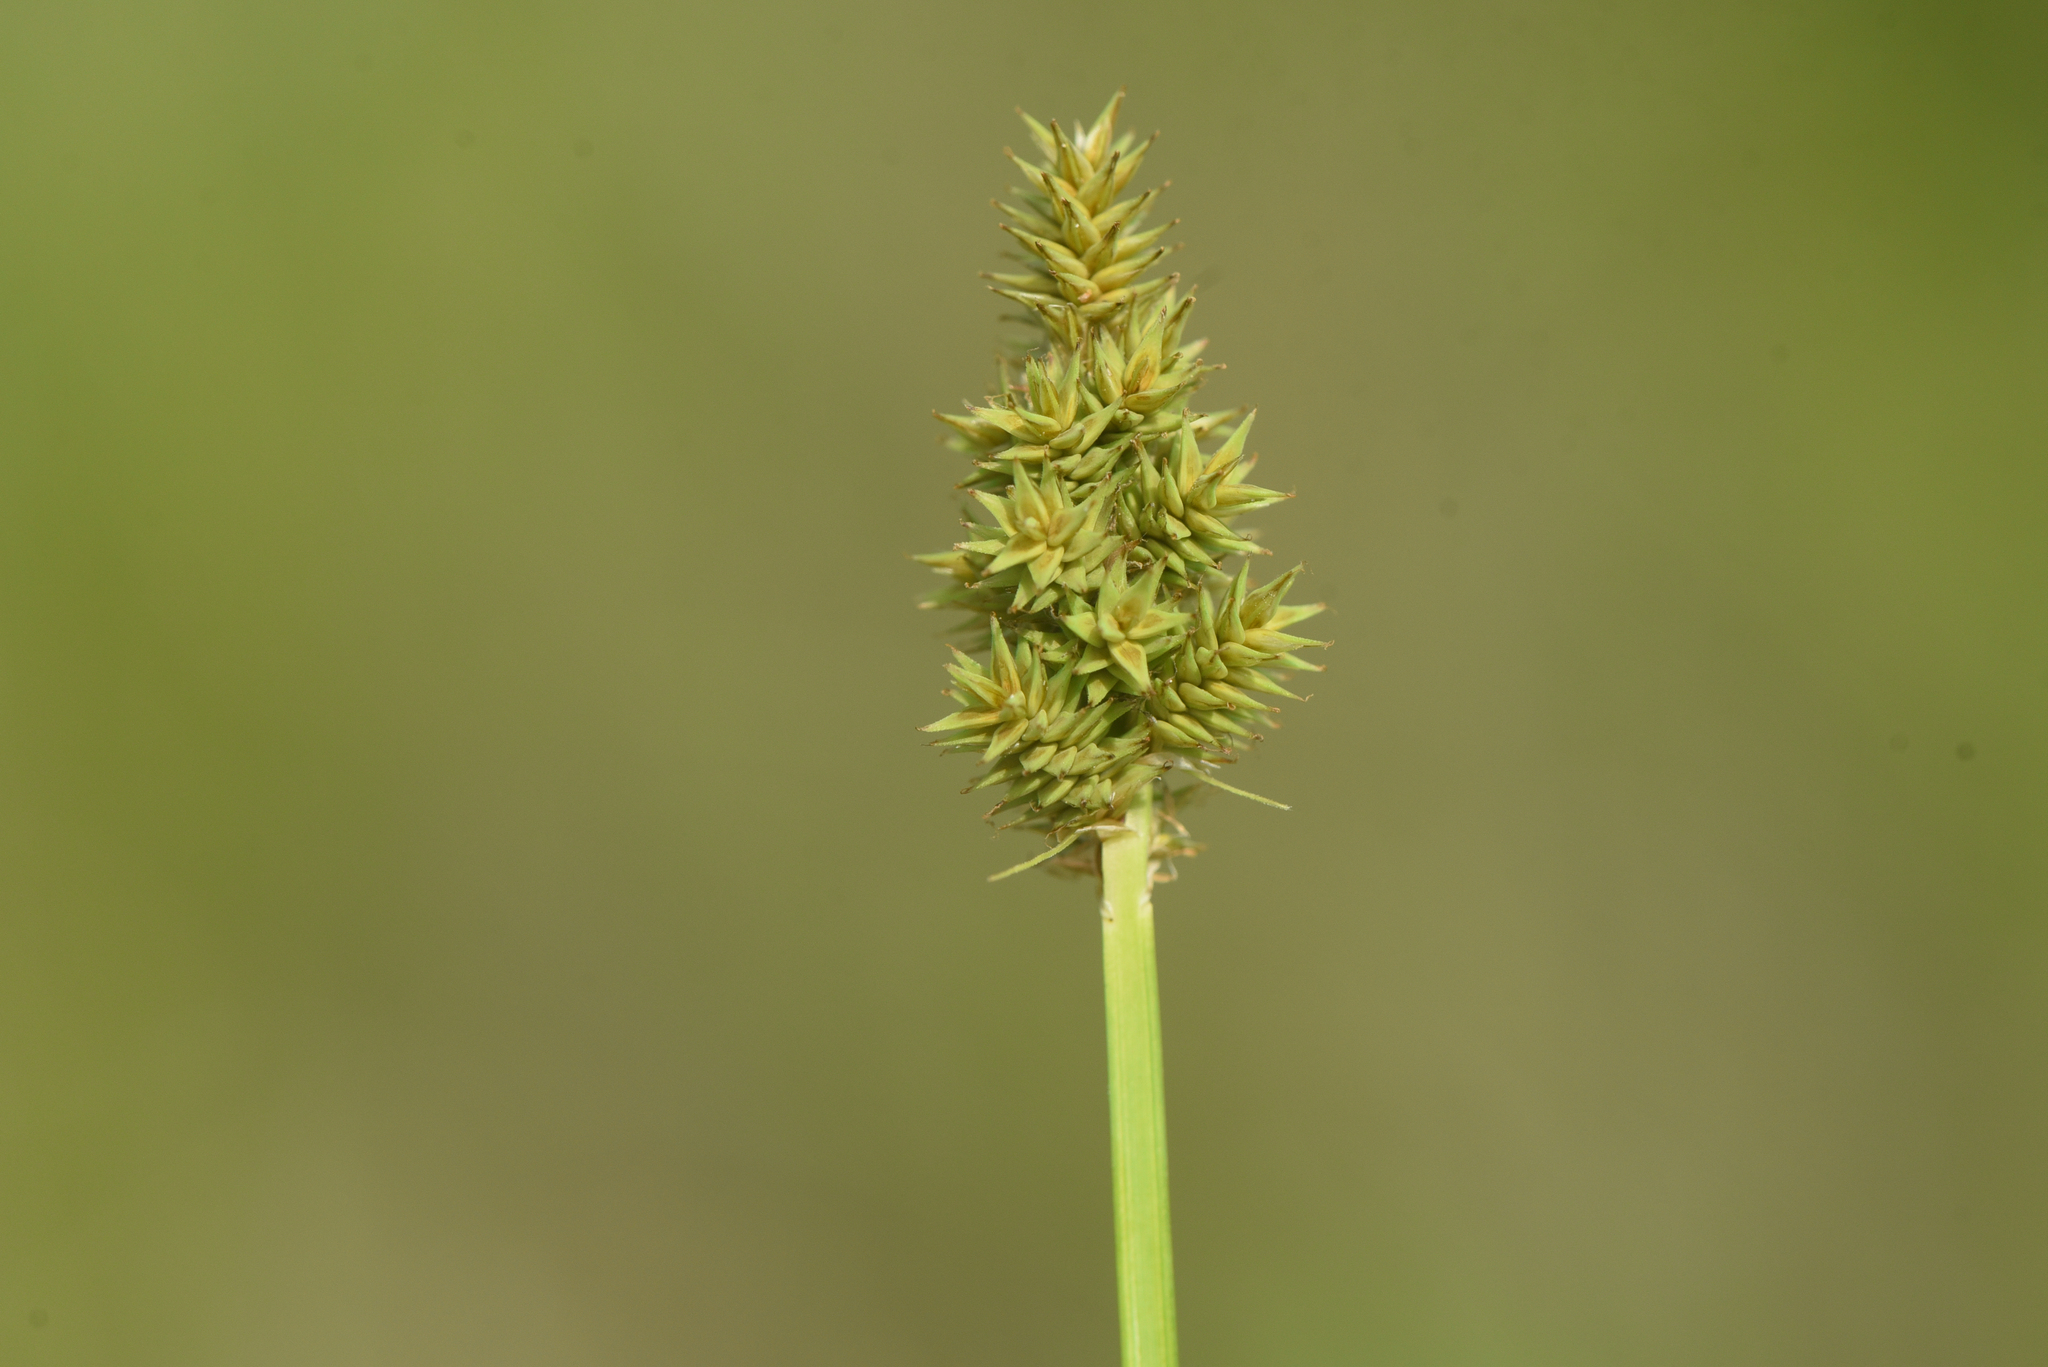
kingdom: Plantae
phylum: Tracheophyta
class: Liliopsida
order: Poales
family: Cyperaceae
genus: Carex
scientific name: Carex arcta
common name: Bear sedge
